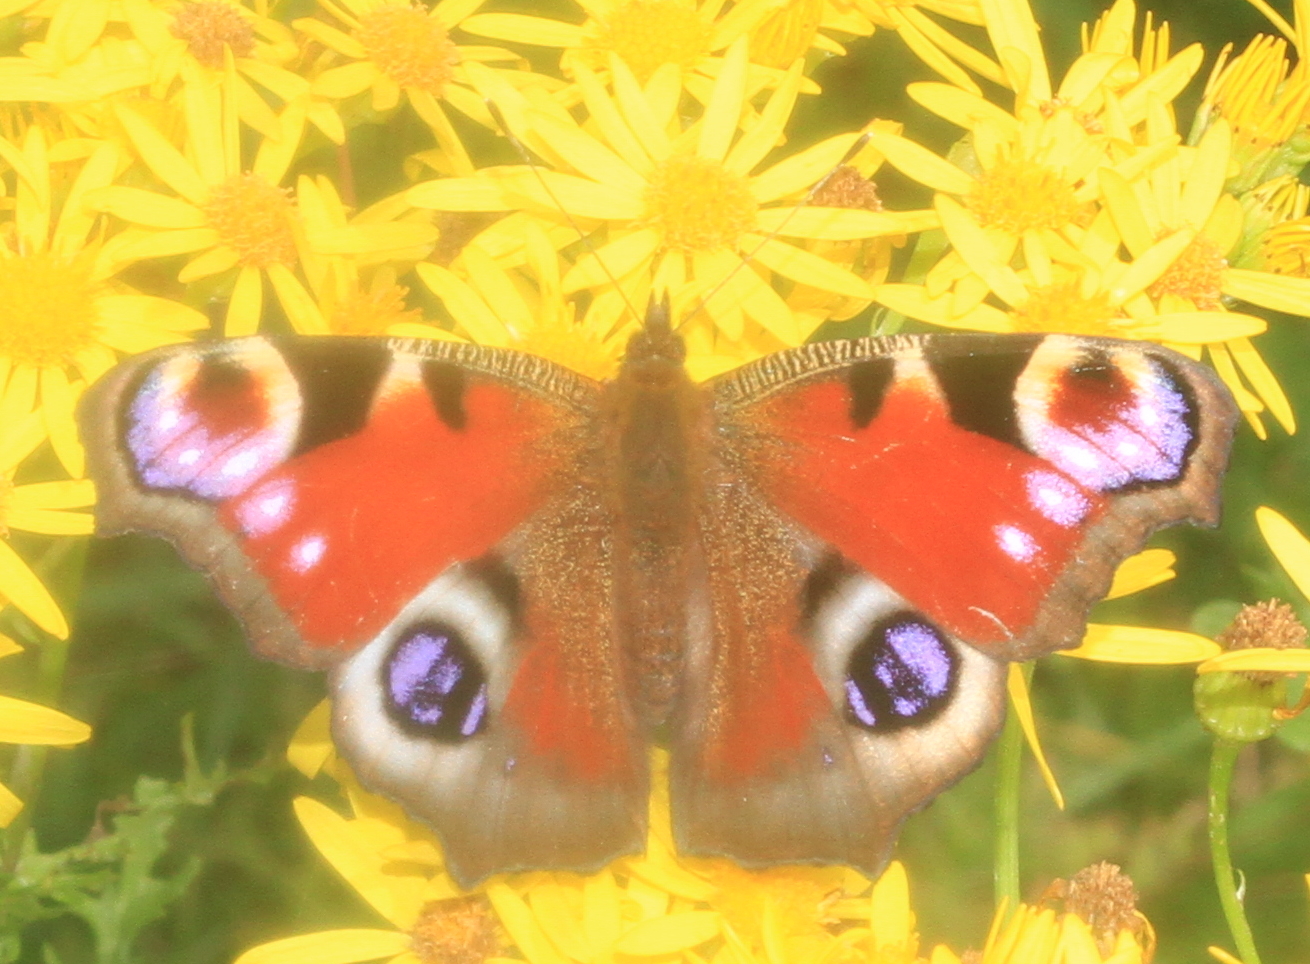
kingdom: Animalia
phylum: Arthropoda
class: Insecta
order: Lepidoptera
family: Nymphalidae
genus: Aglais
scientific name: Aglais io
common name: Peacock
